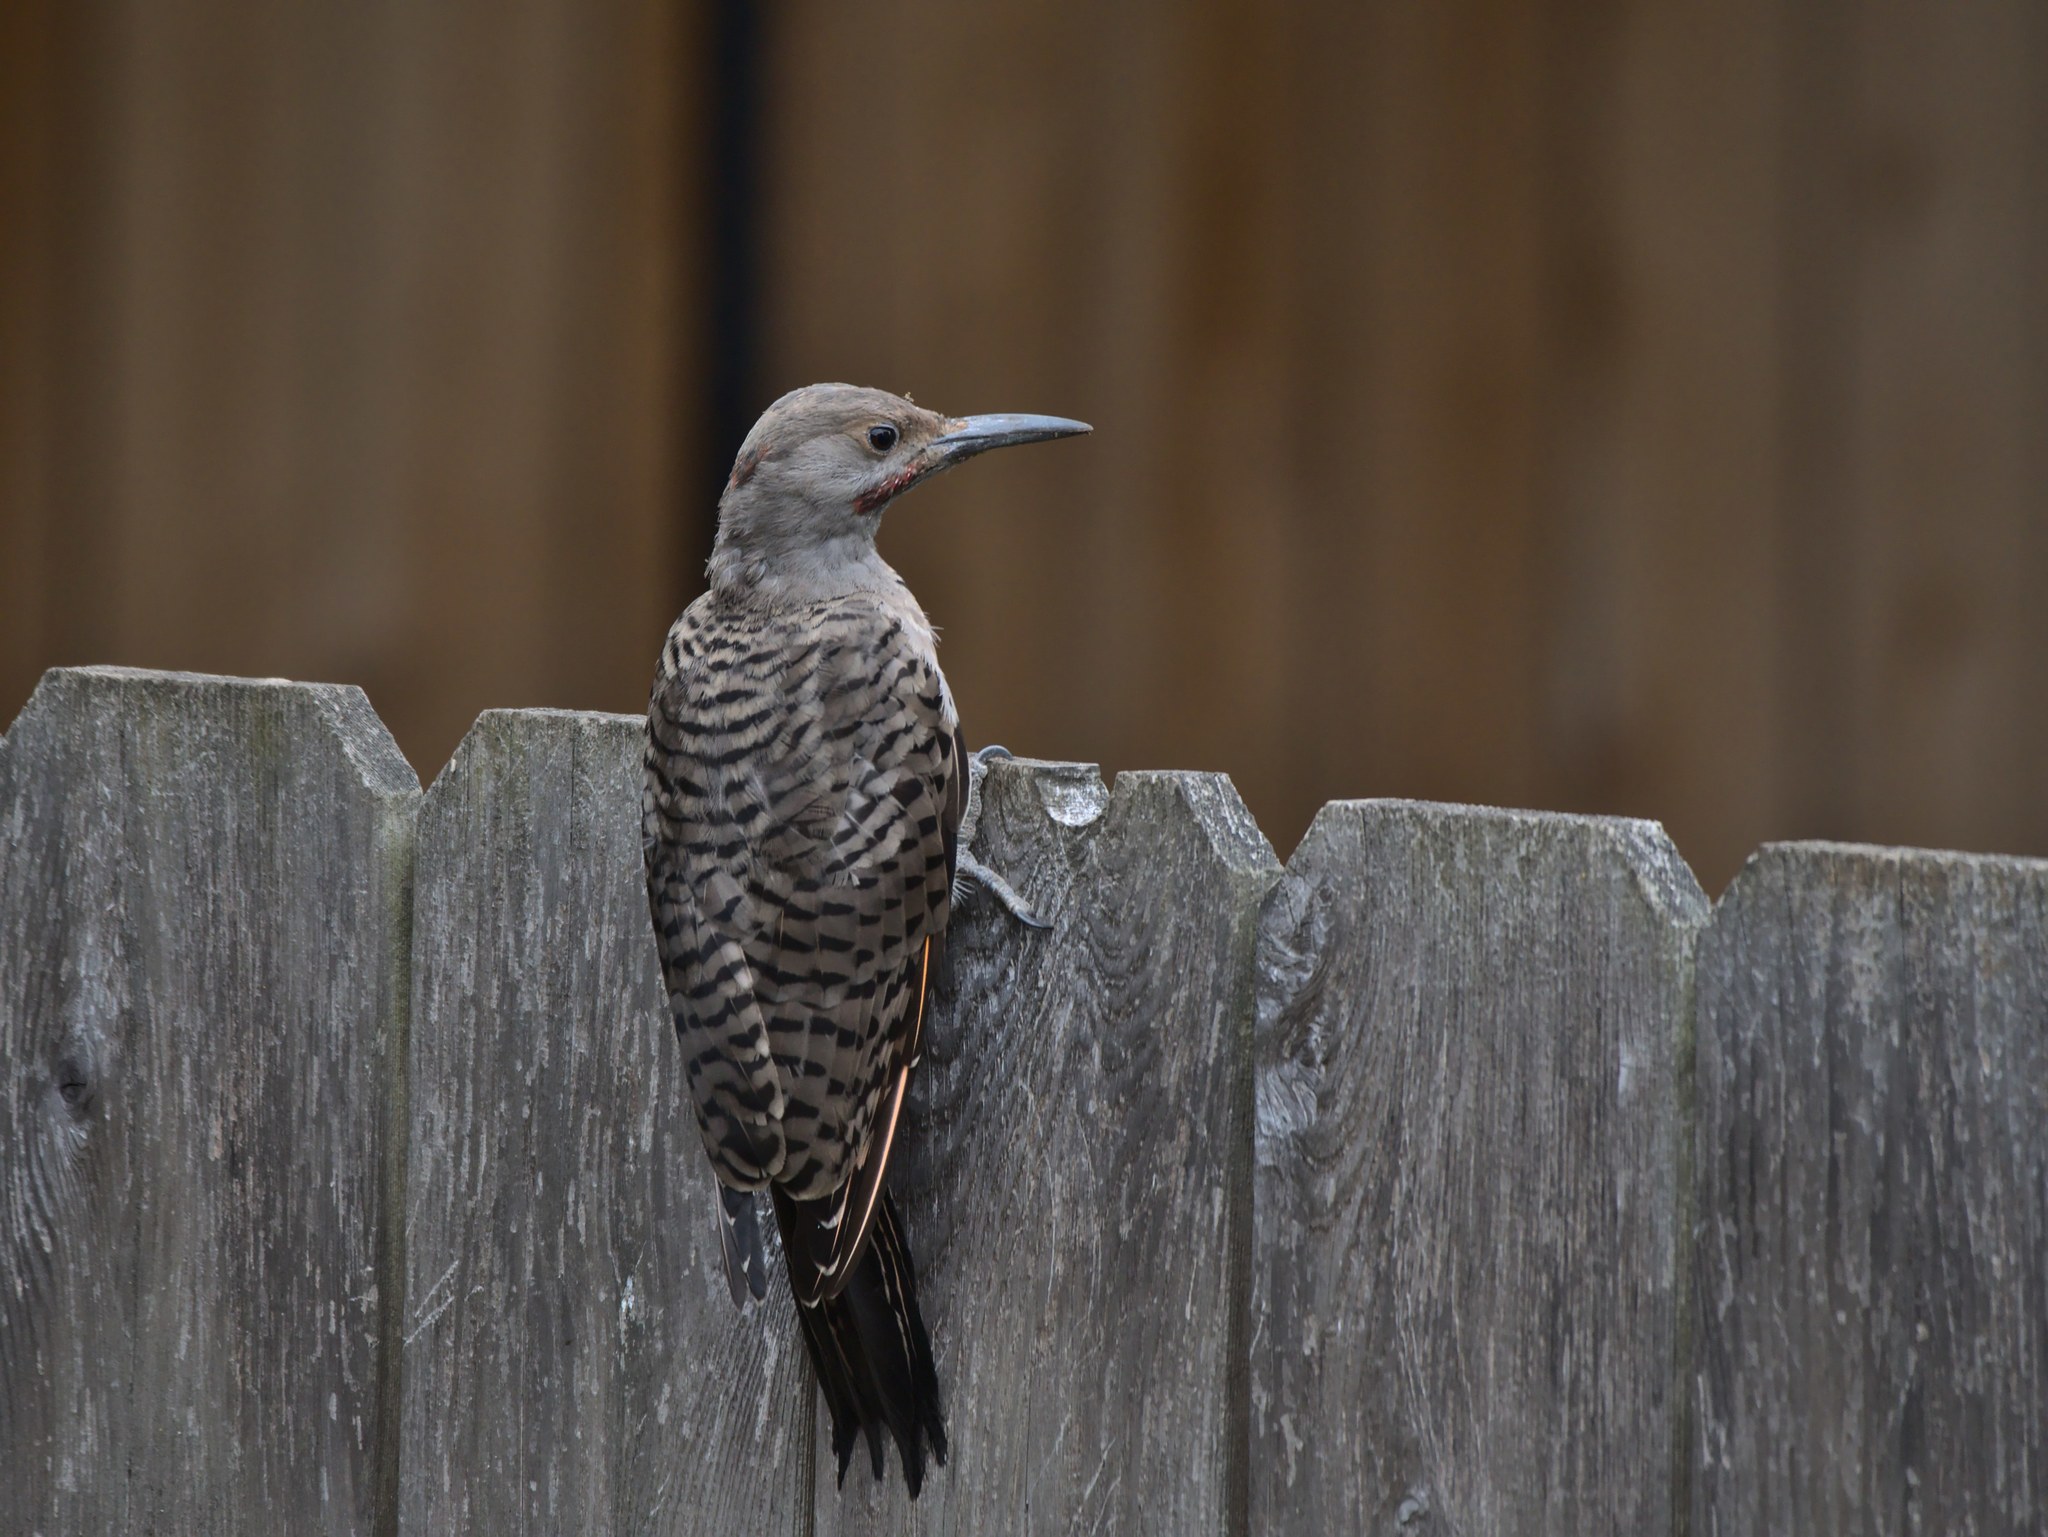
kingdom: Animalia
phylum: Chordata
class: Aves
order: Piciformes
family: Picidae
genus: Colaptes
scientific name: Colaptes auratus
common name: Northern flicker
